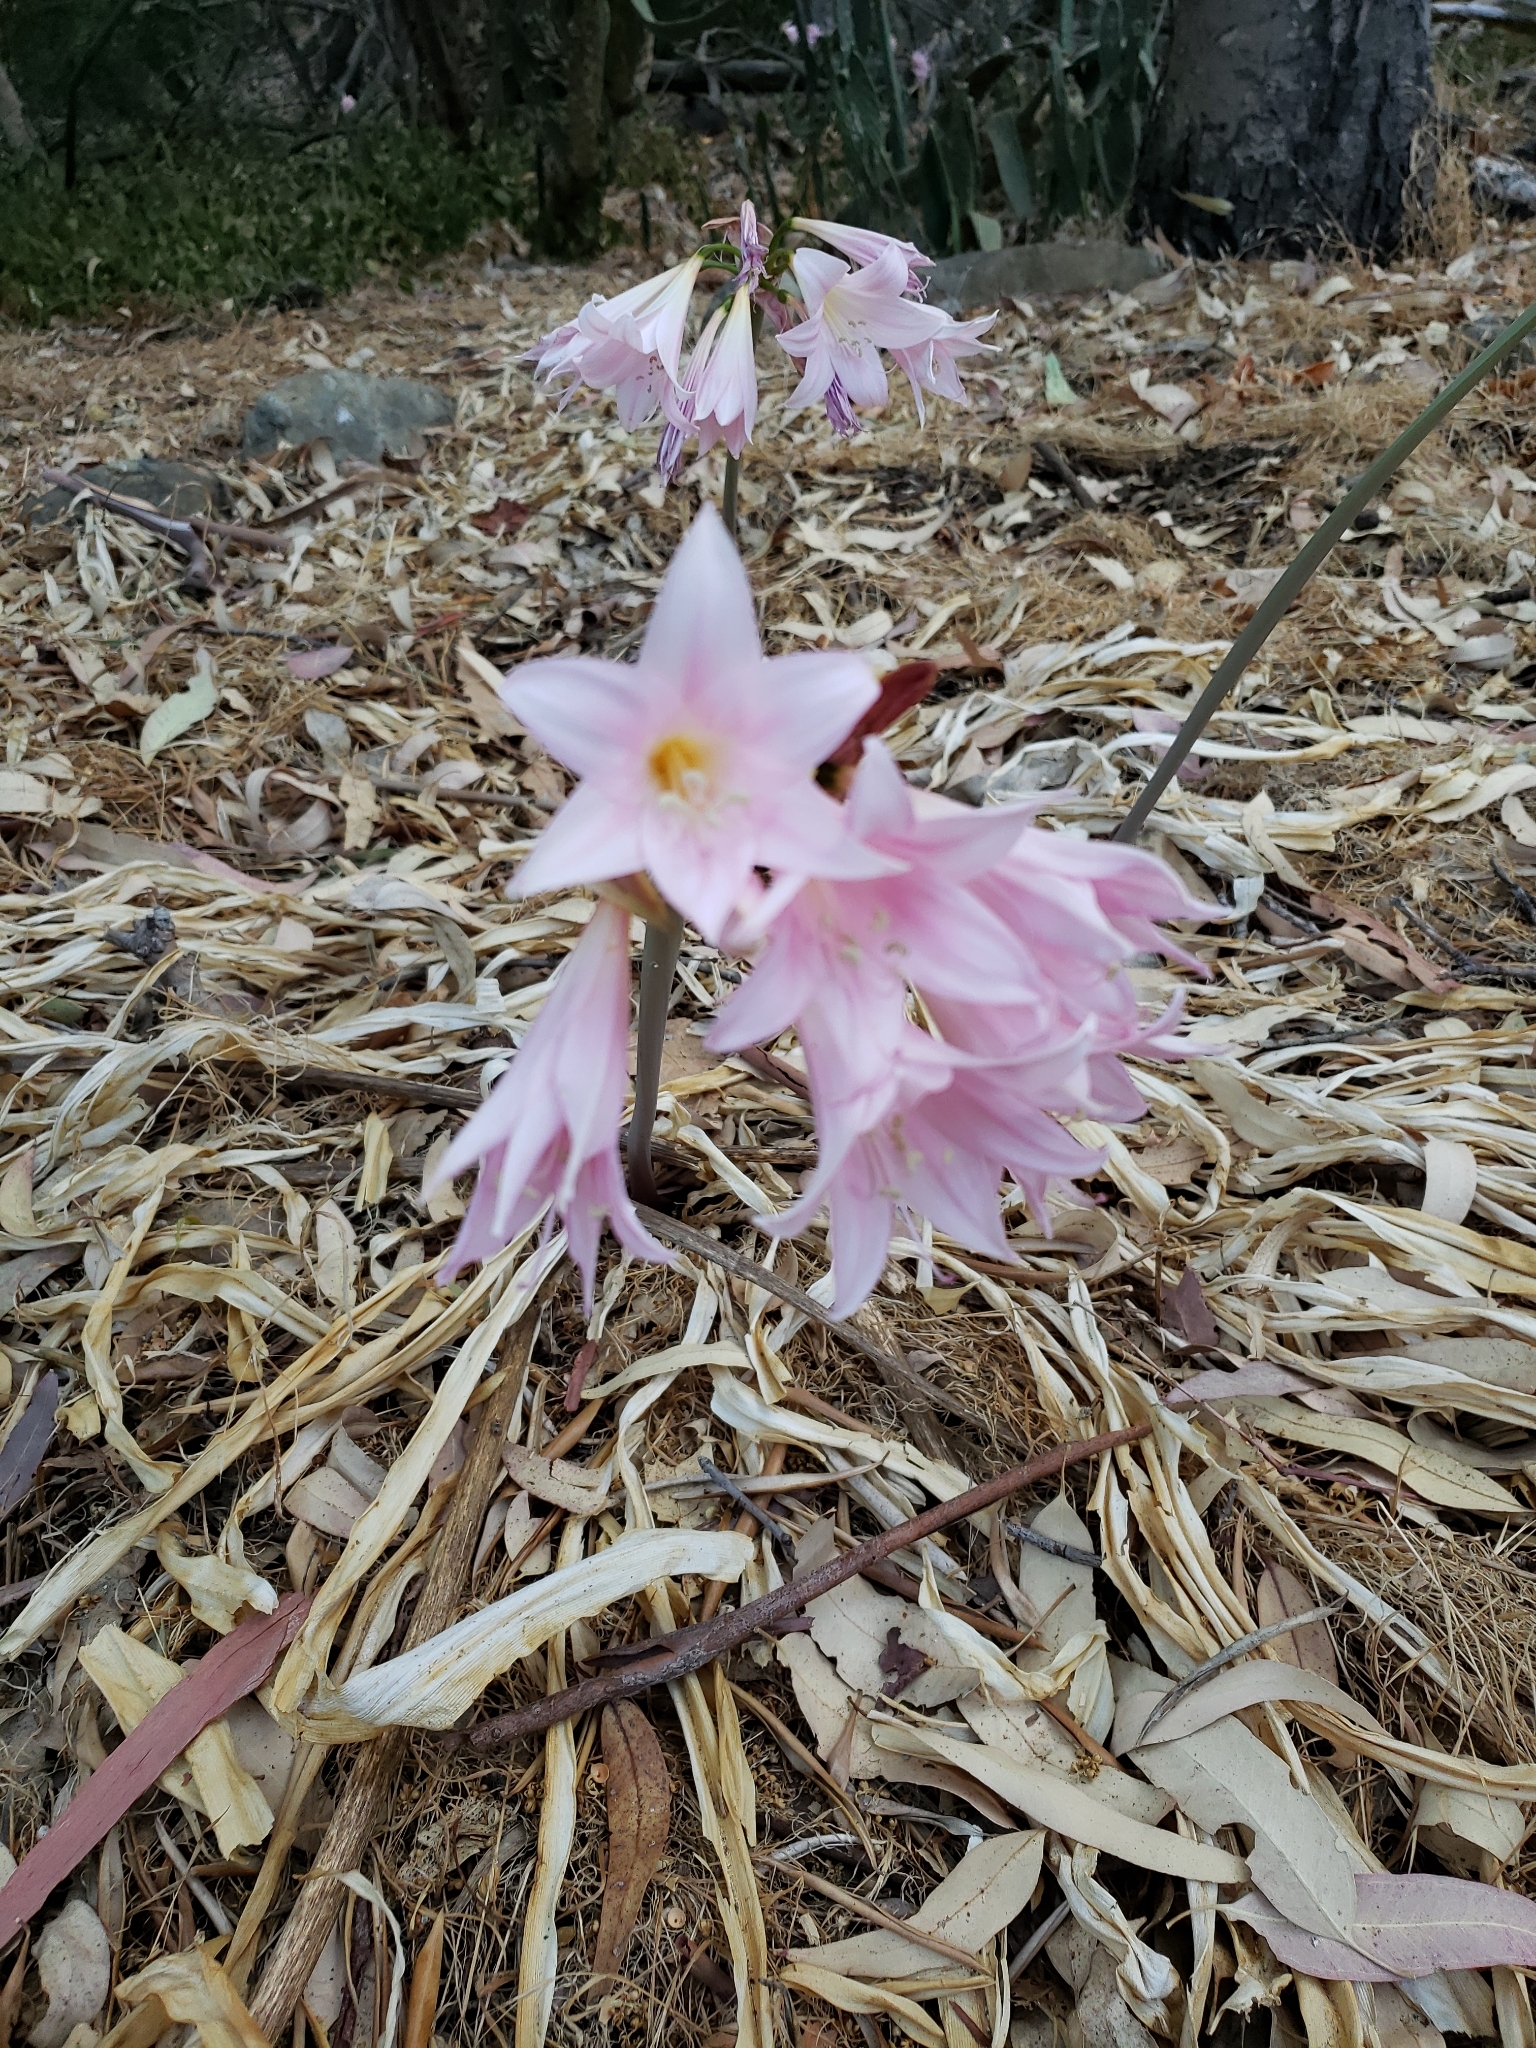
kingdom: Plantae
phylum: Tracheophyta
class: Liliopsida
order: Asparagales
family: Amaryllidaceae
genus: Amaryllis
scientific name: Amaryllis belladonna
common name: Jersey lily
